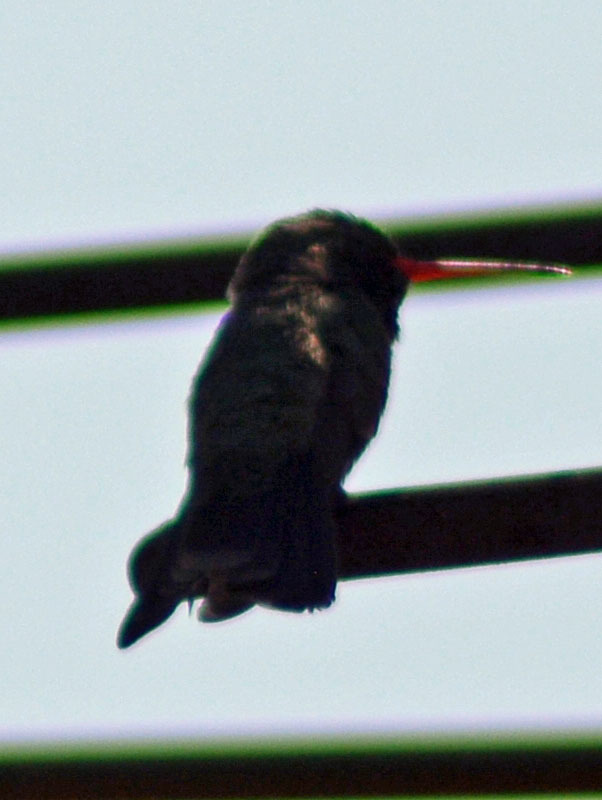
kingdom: Animalia
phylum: Chordata
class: Aves
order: Apodiformes
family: Trochilidae
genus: Cynanthus
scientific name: Cynanthus latirostris
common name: Broad-billed hummingbird
